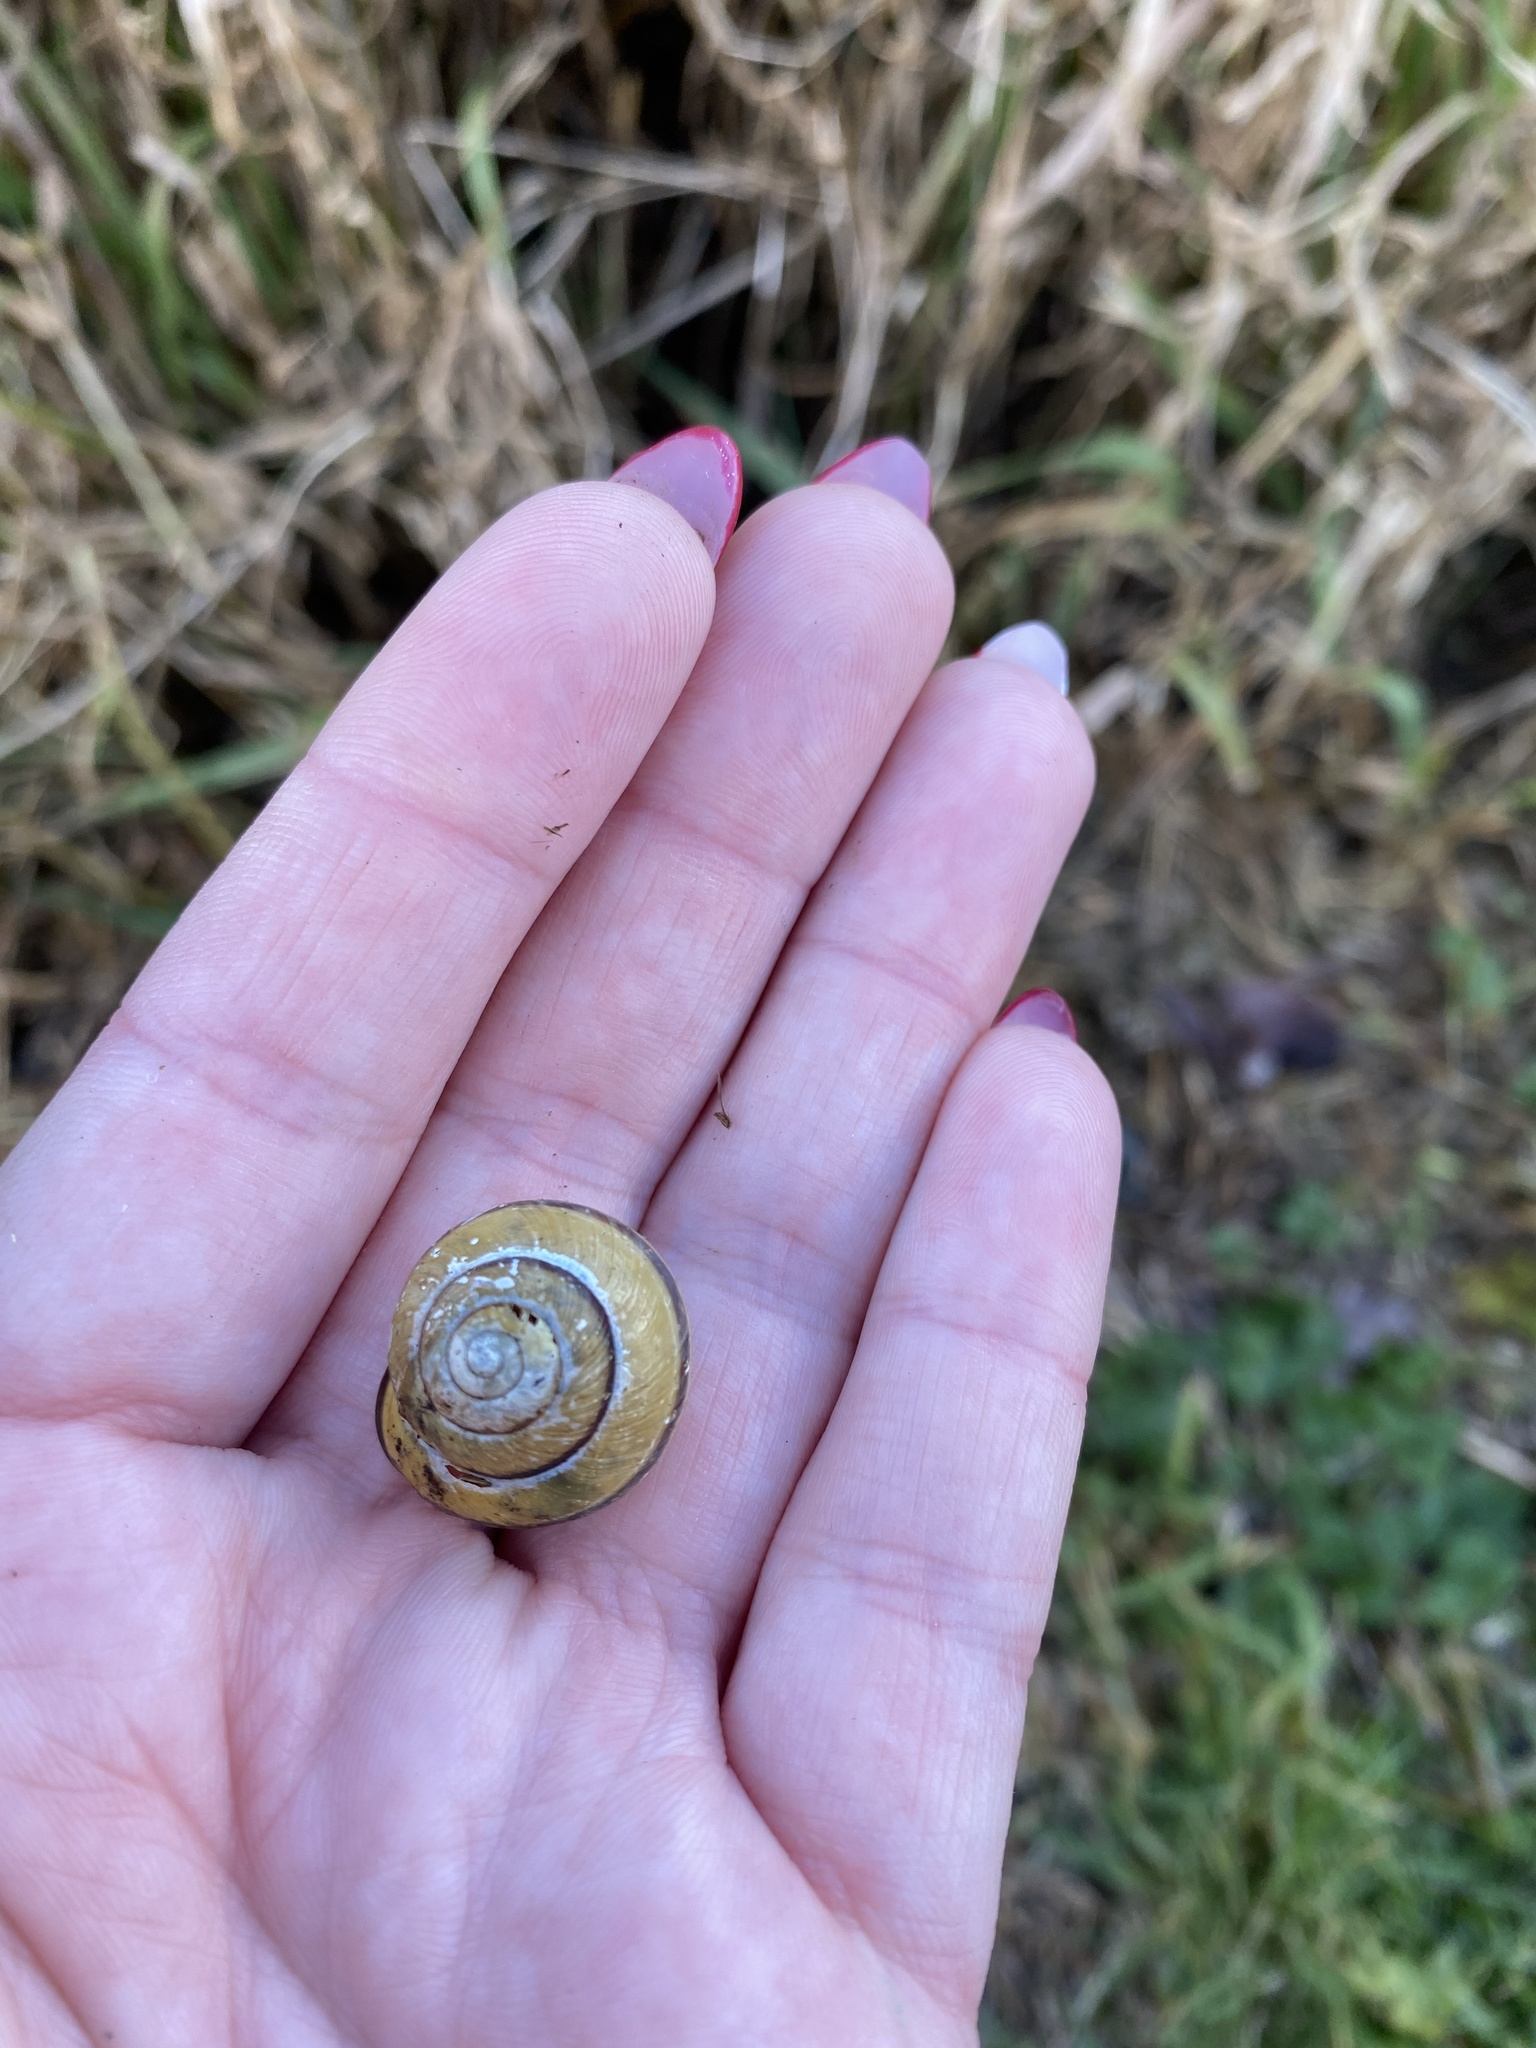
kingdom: Animalia
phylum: Mollusca
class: Gastropoda
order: Stylommatophora
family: Helicidae
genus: Cepaea
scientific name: Cepaea nemoralis
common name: Grovesnail
